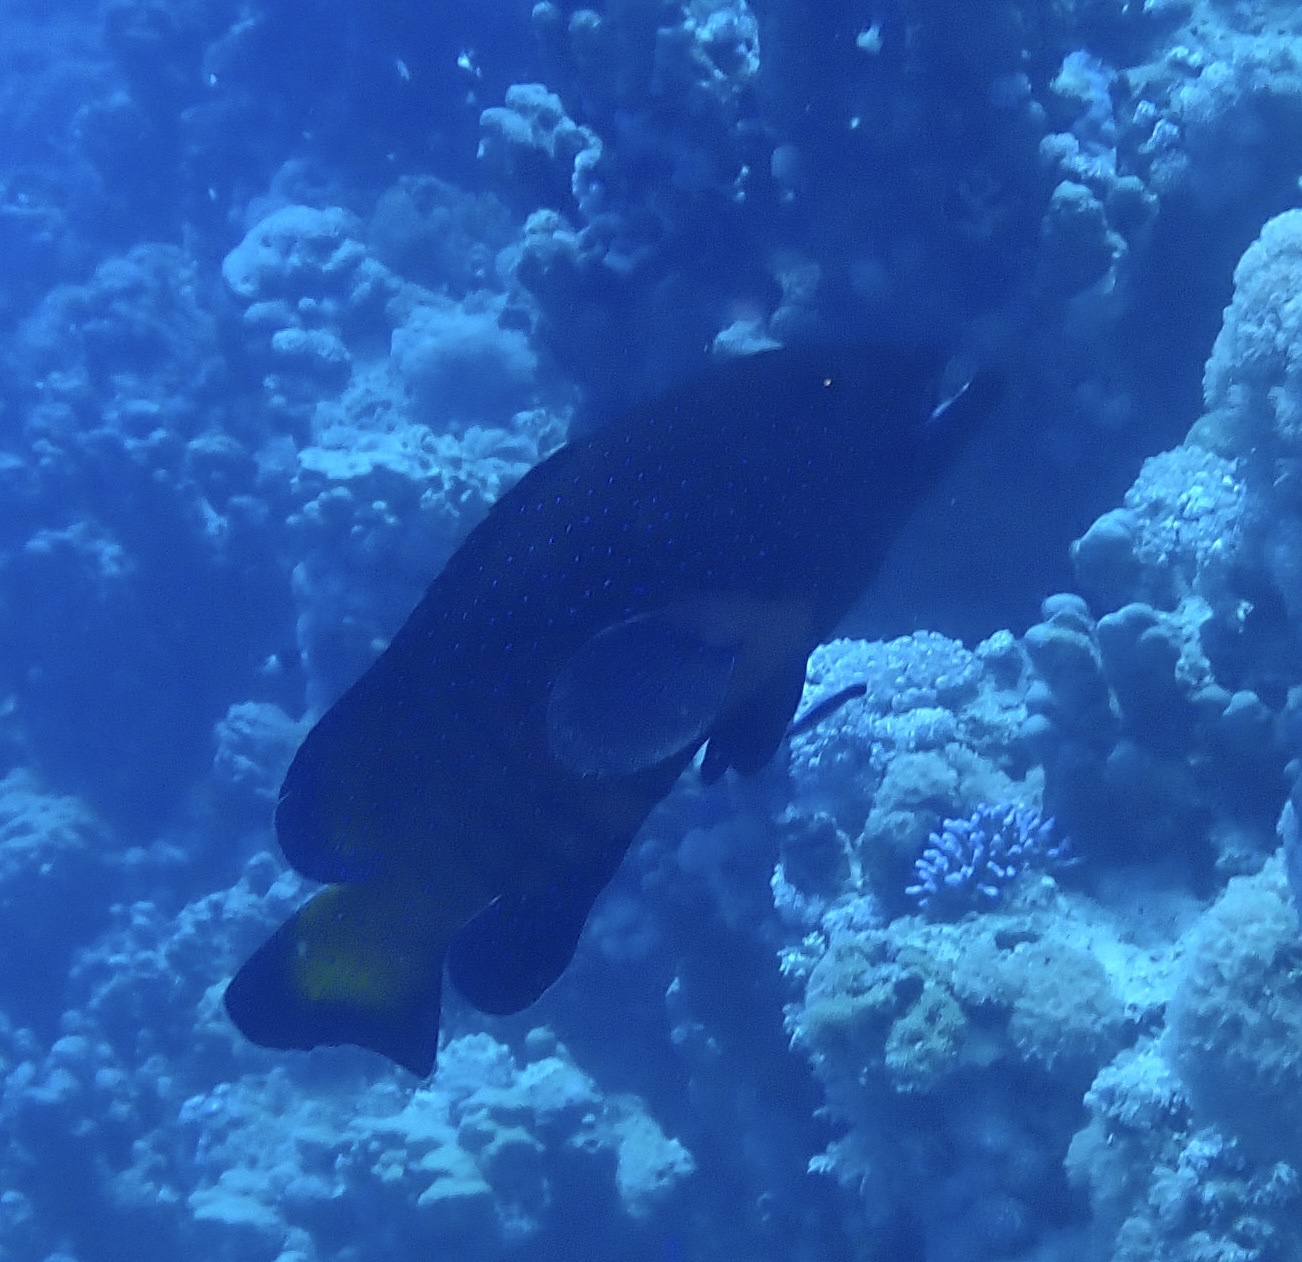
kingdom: Animalia
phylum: Chordata
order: Perciformes
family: Serranidae
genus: Cephalopholis
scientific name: Cephalopholis argus
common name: Peacock grouper
